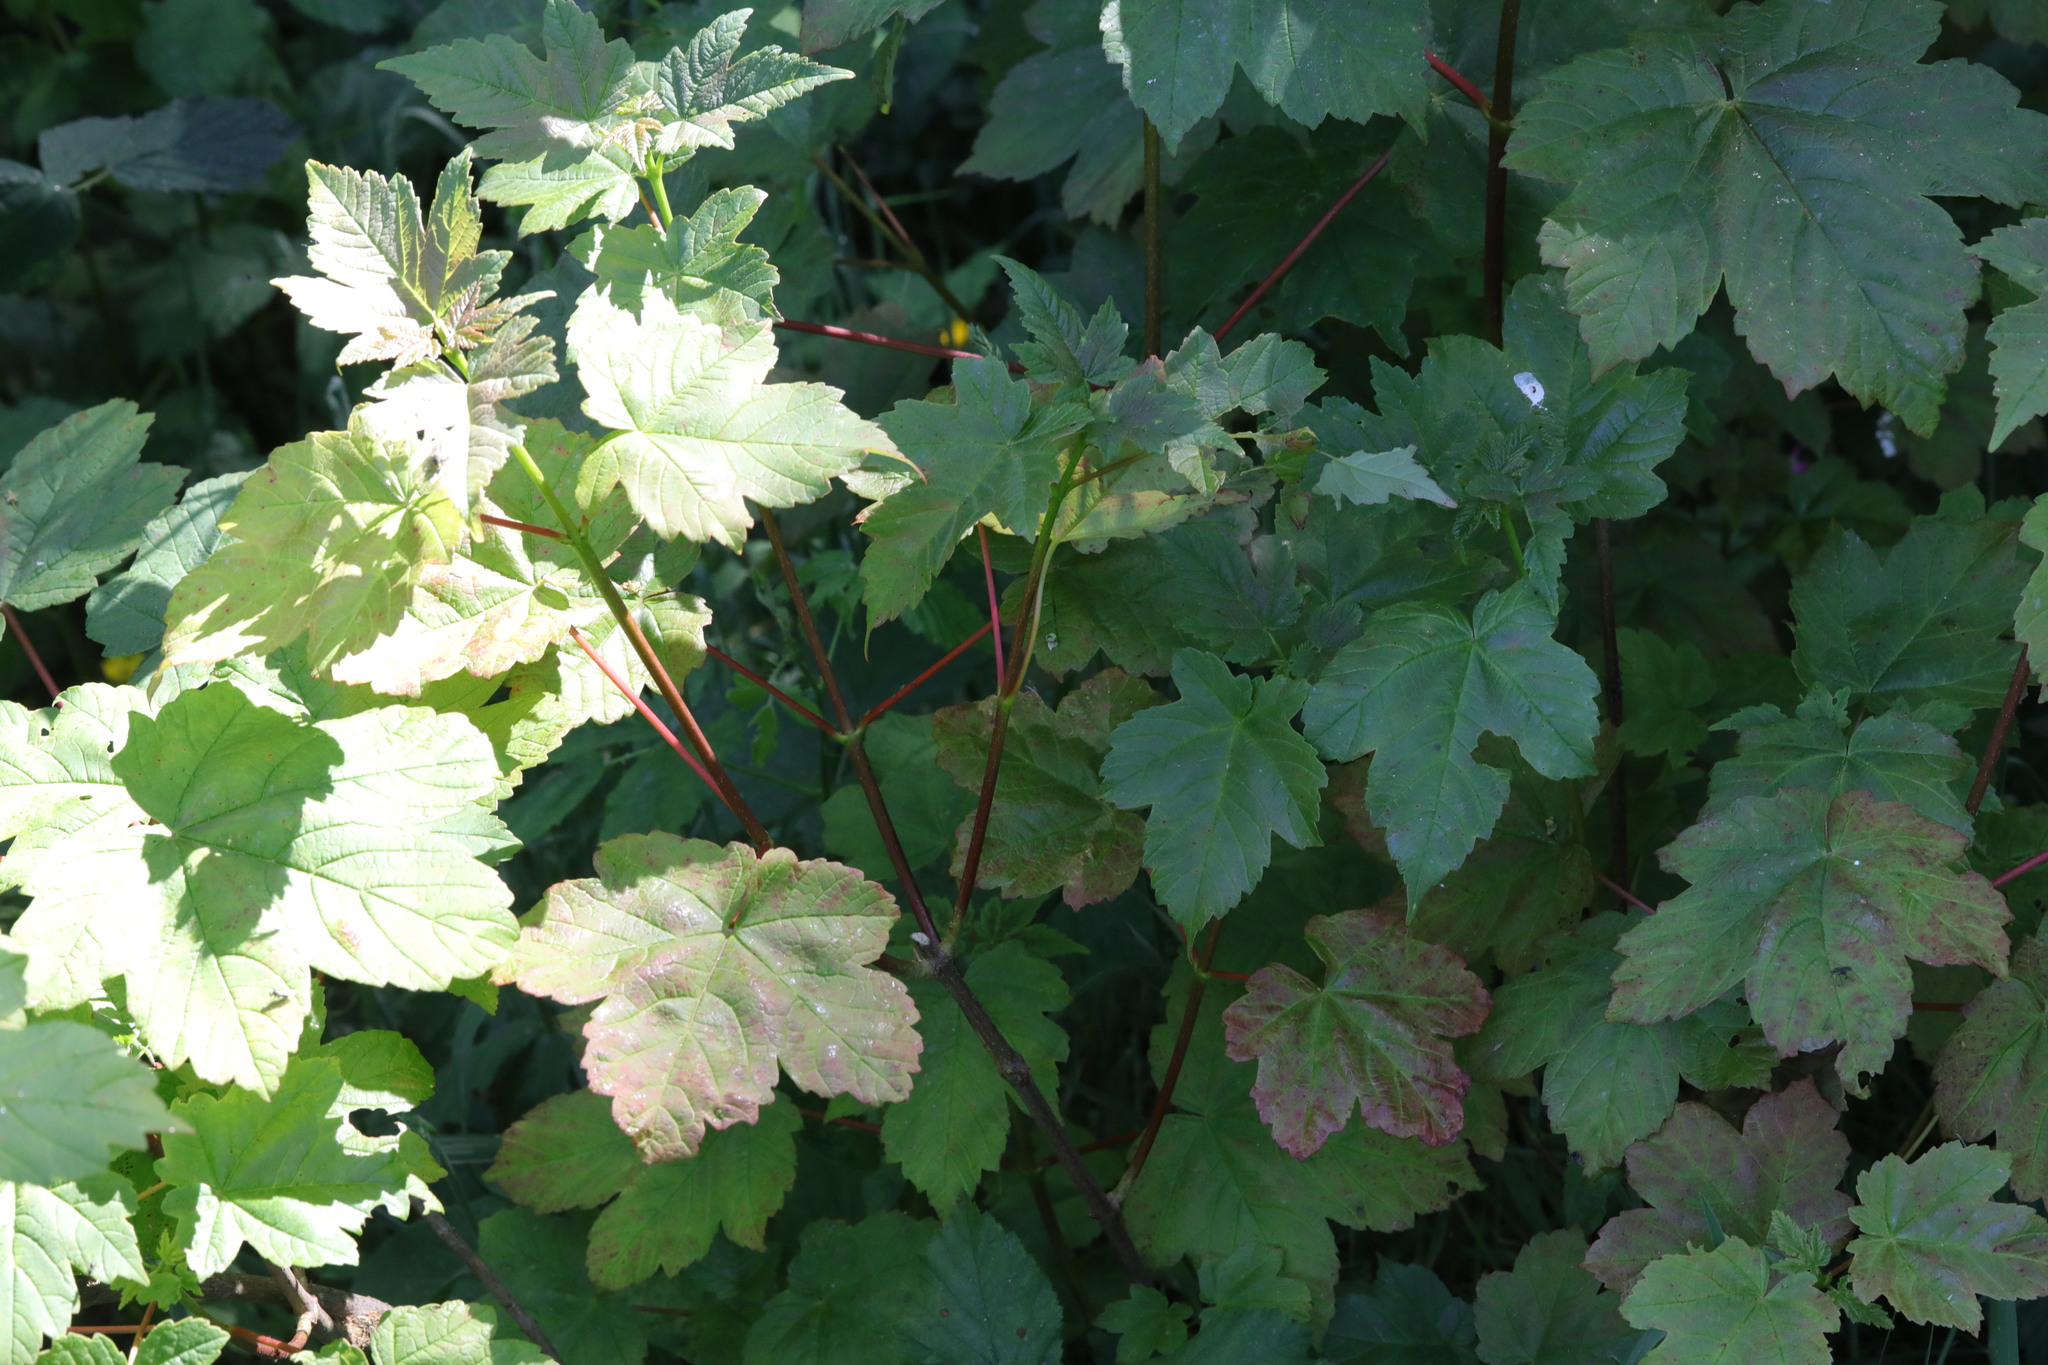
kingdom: Plantae
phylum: Tracheophyta
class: Magnoliopsida
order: Sapindales
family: Sapindaceae
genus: Acer
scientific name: Acer pseudoplatanus
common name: Sycamore
